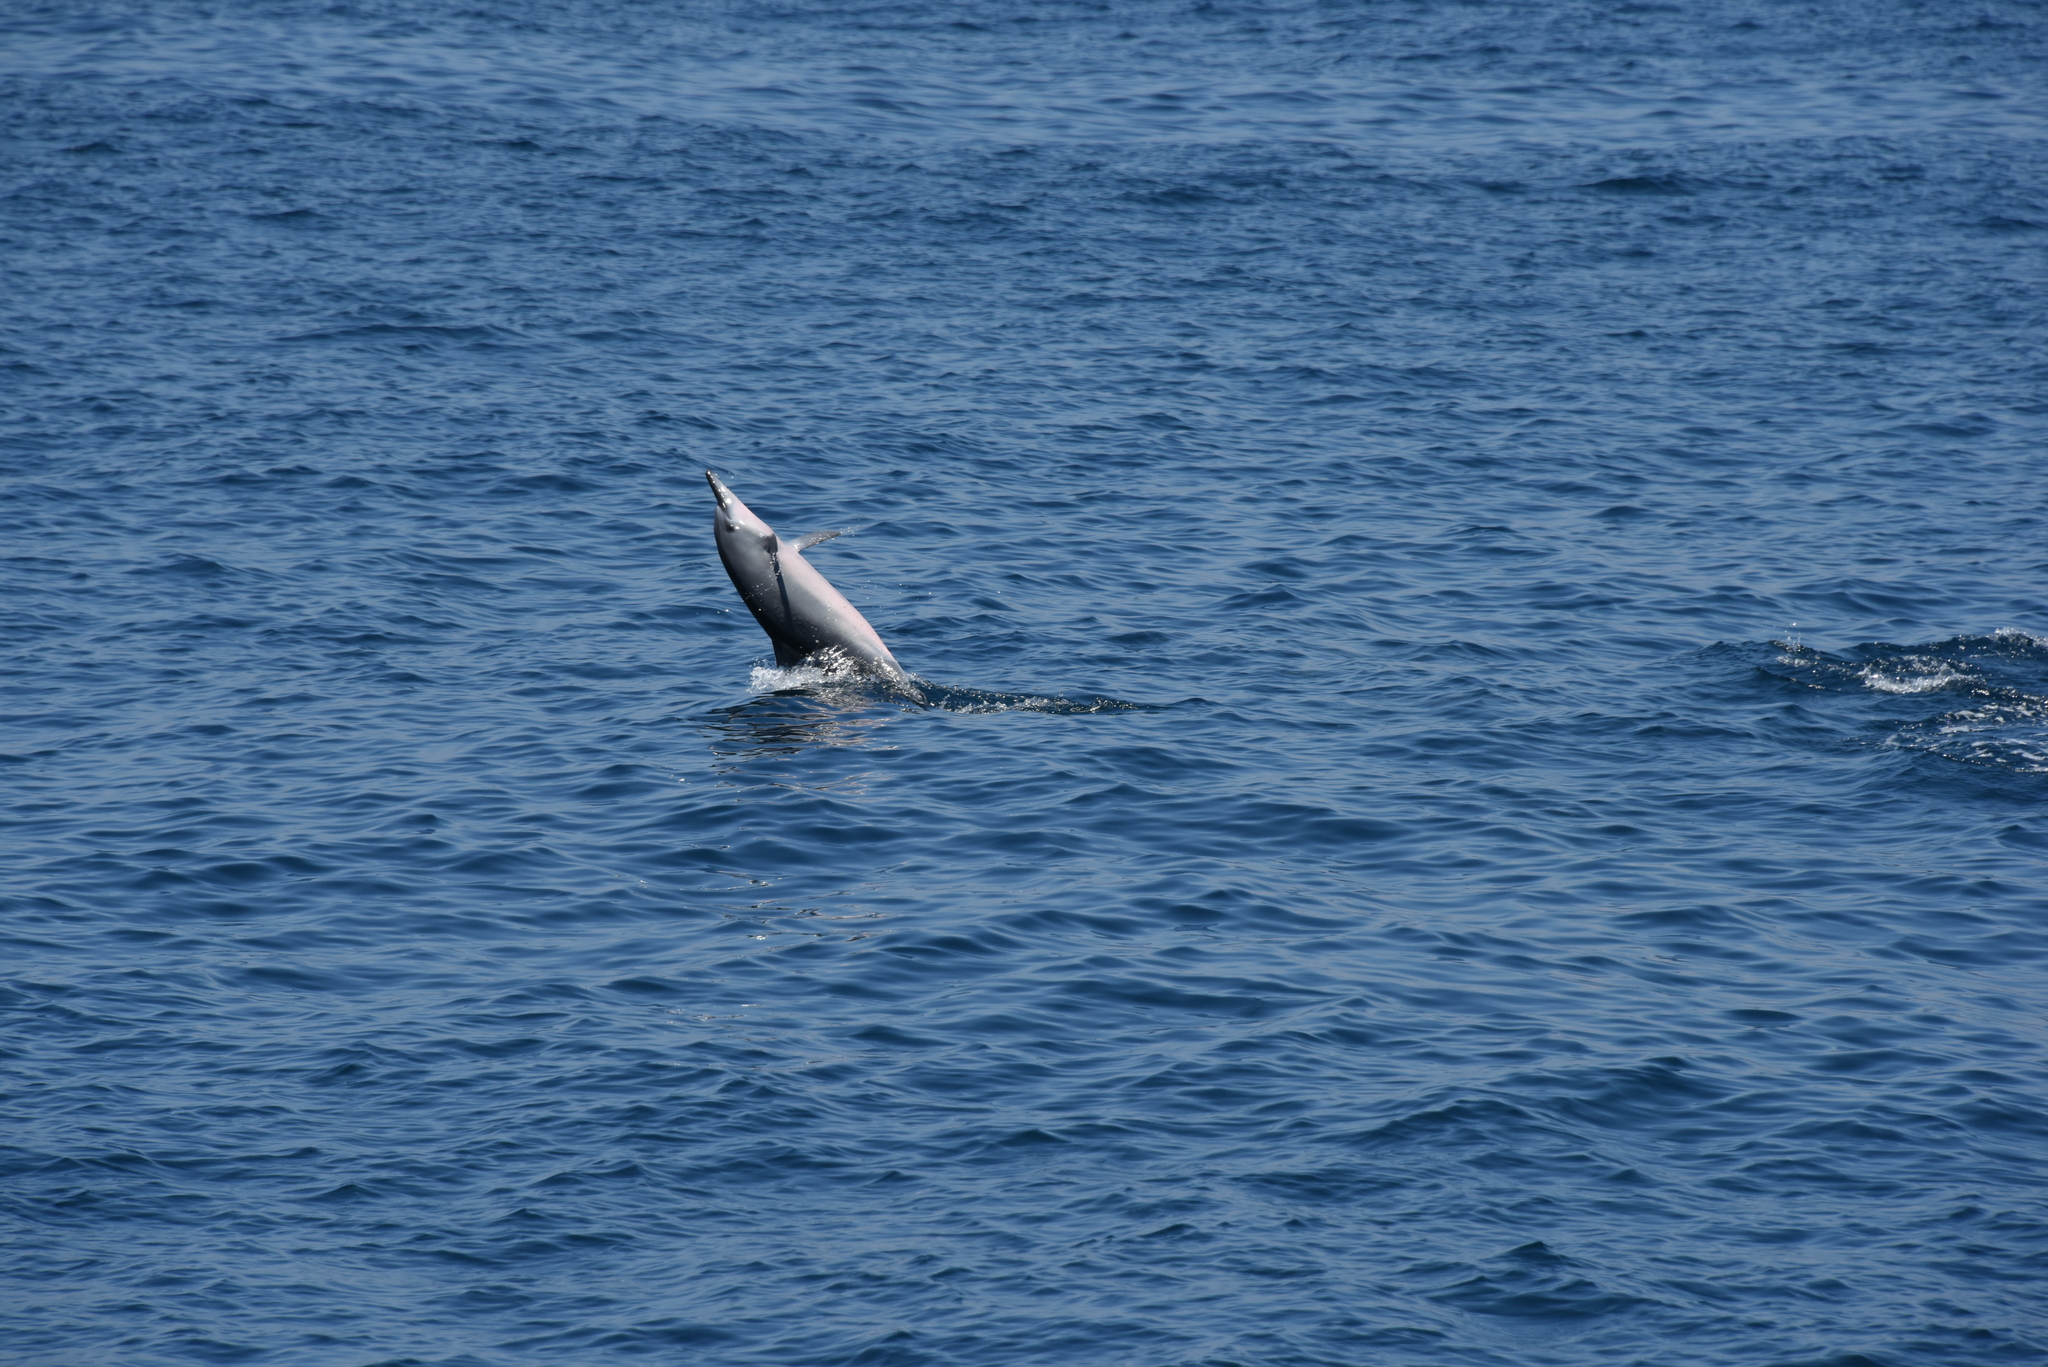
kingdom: Animalia
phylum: Chordata
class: Mammalia
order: Cetacea
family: Delphinidae
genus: Stenella
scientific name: Stenella longirostris
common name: Spinner dolphin
